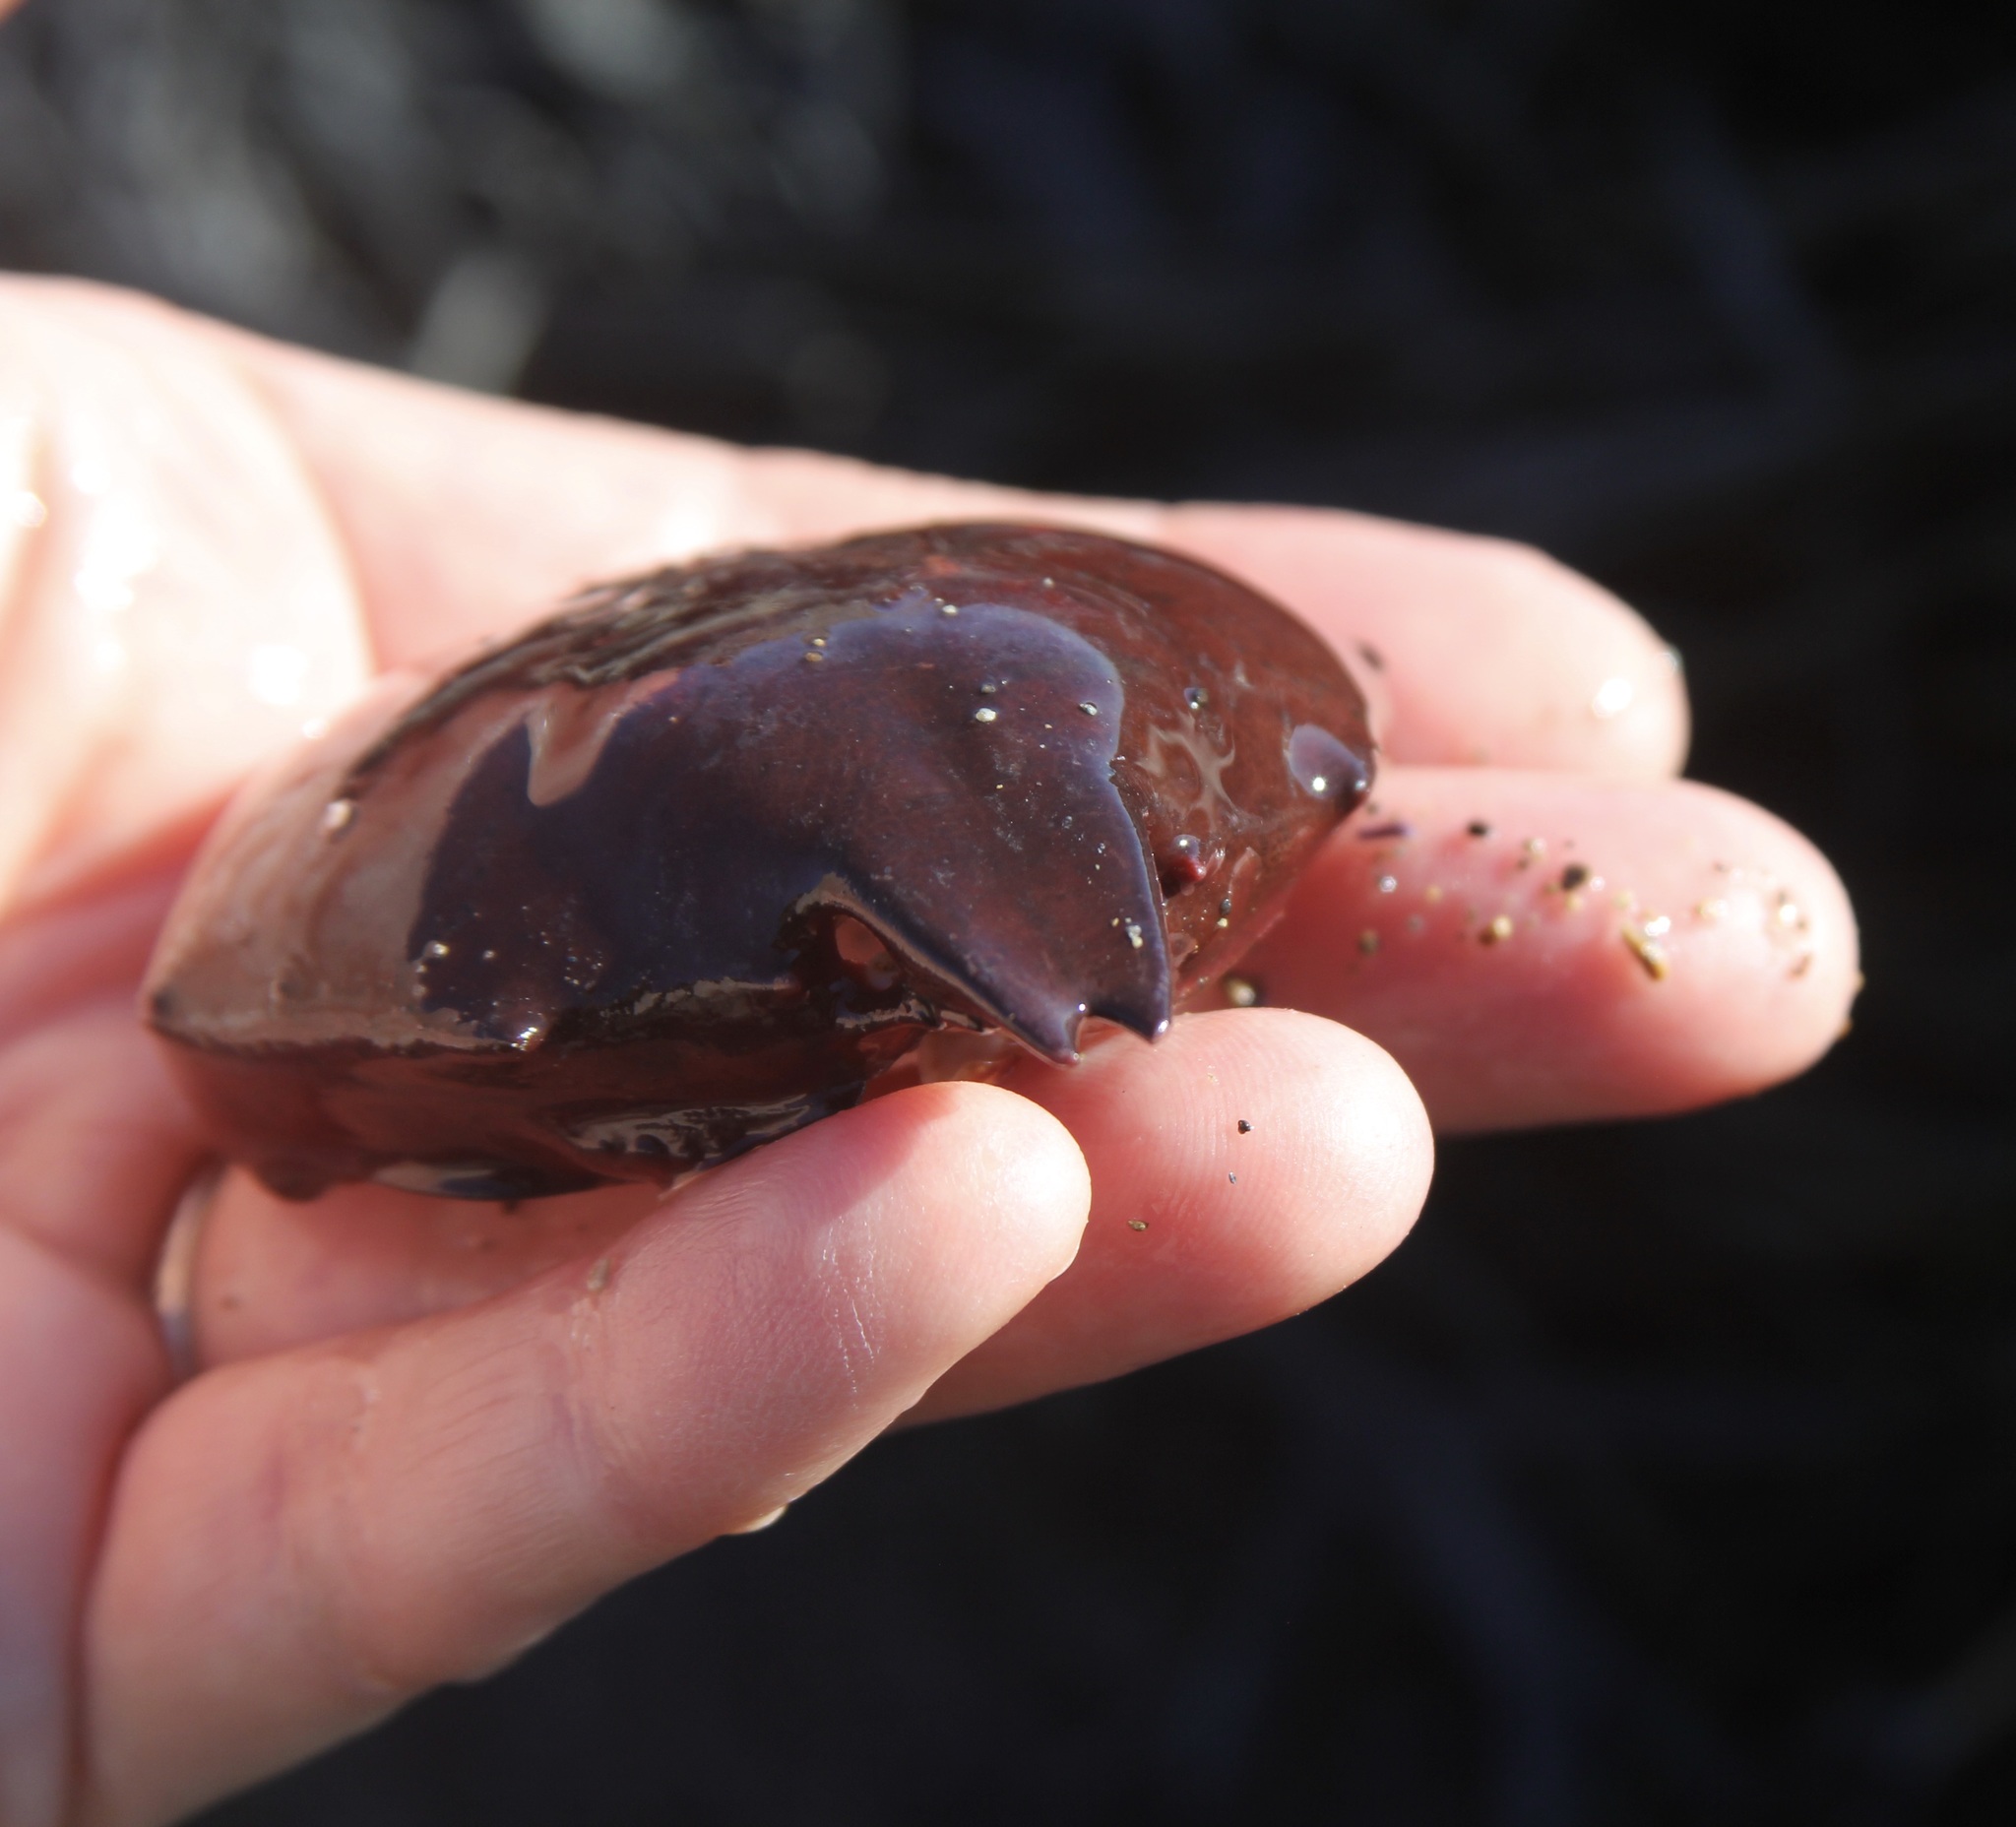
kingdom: Animalia
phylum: Arthropoda
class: Malacostraca
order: Decapoda
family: Epialtidae
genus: Taliepus
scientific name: Taliepus nuttallii
